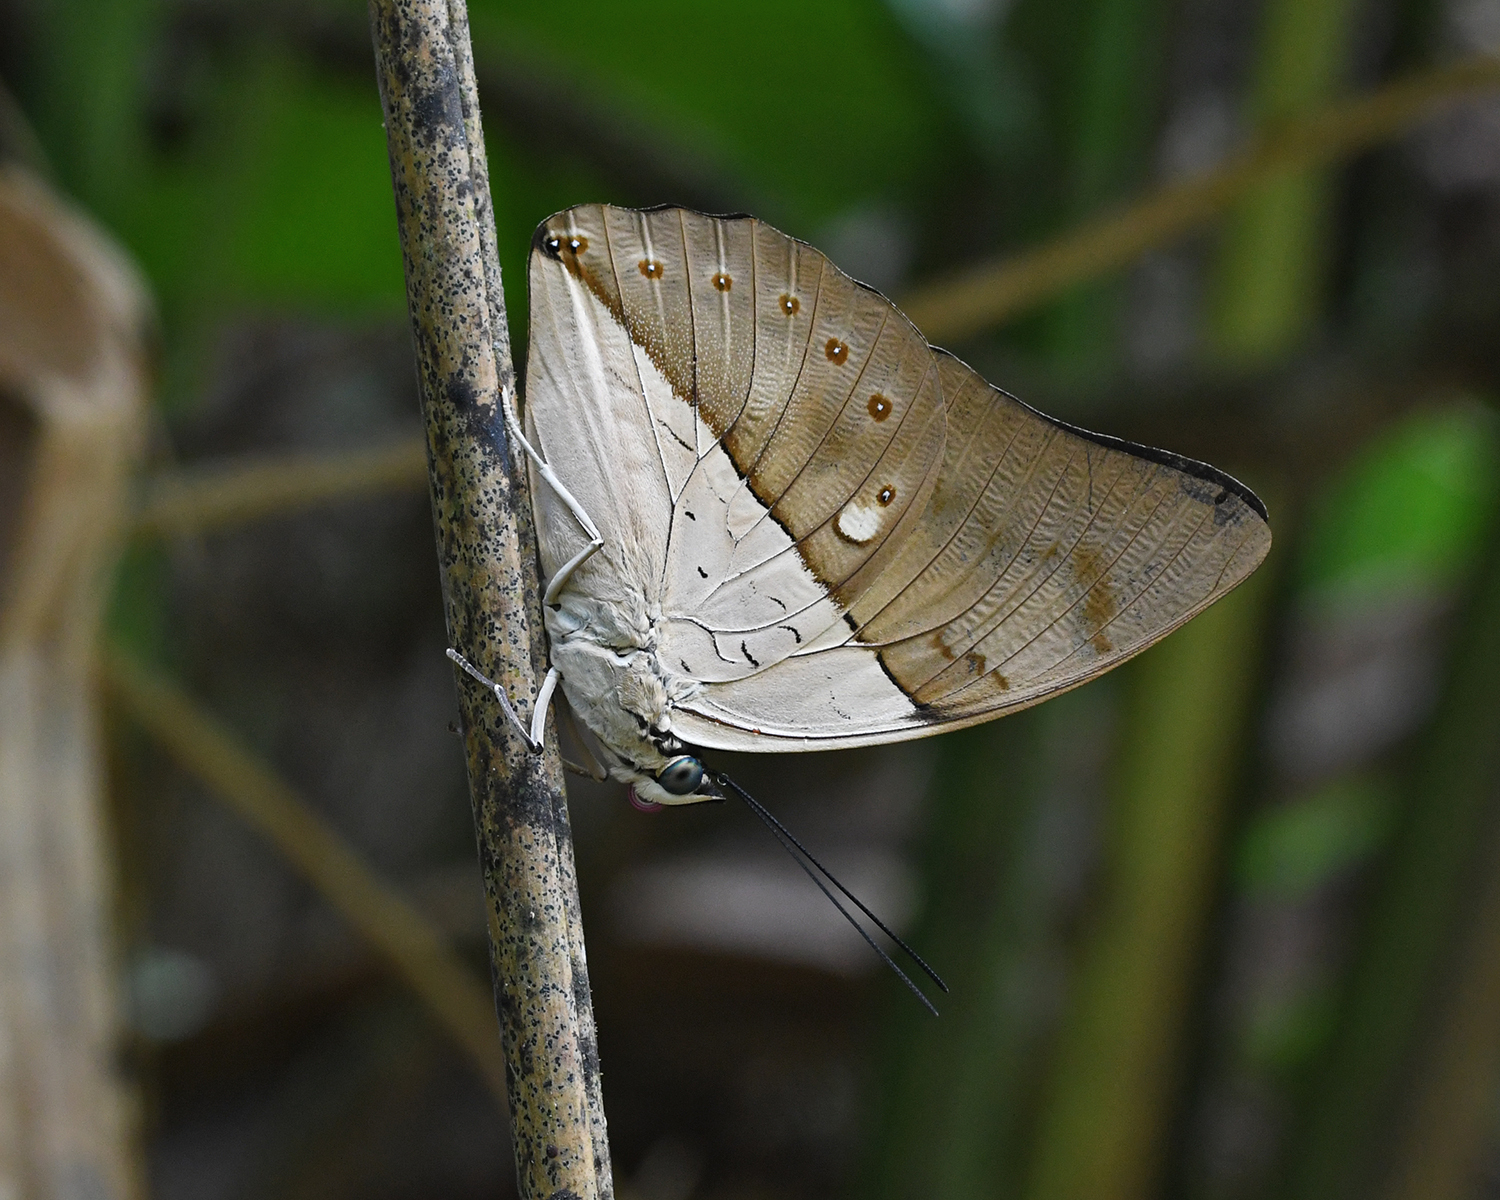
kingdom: Animalia
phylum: Arthropoda
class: Insecta
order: Lepidoptera
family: Nymphalidae
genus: Prepona
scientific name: Prepona meander
